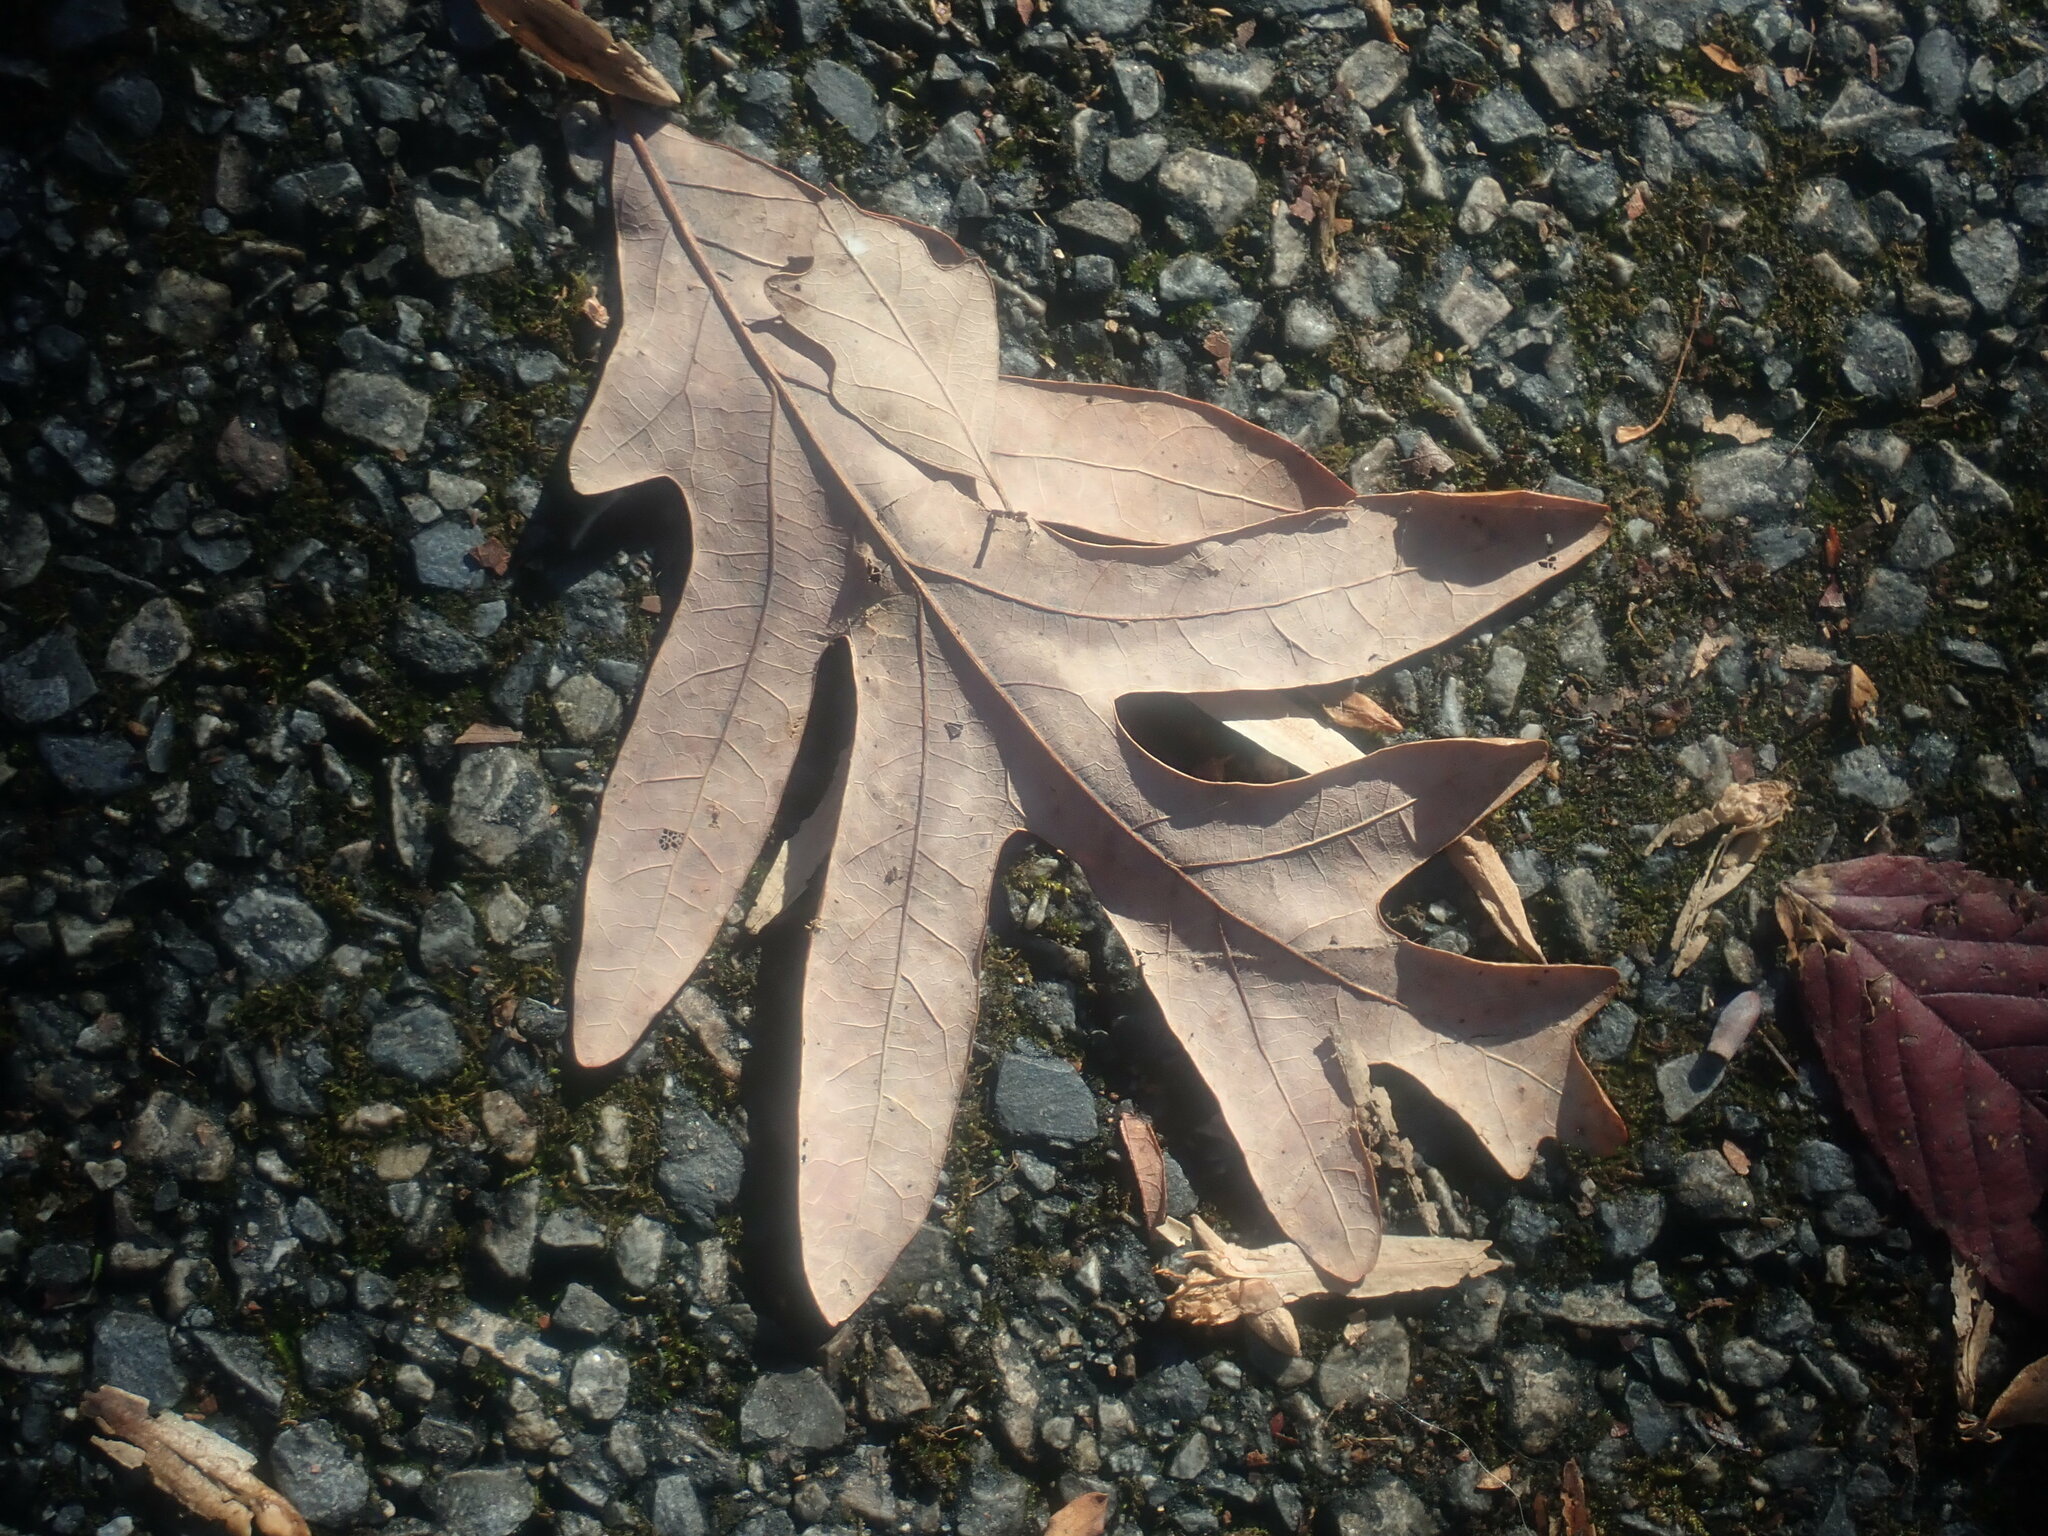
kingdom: Plantae
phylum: Tracheophyta
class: Magnoliopsida
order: Fagales
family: Fagaceae
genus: Quercus
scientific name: Quercus alba
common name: White oak
